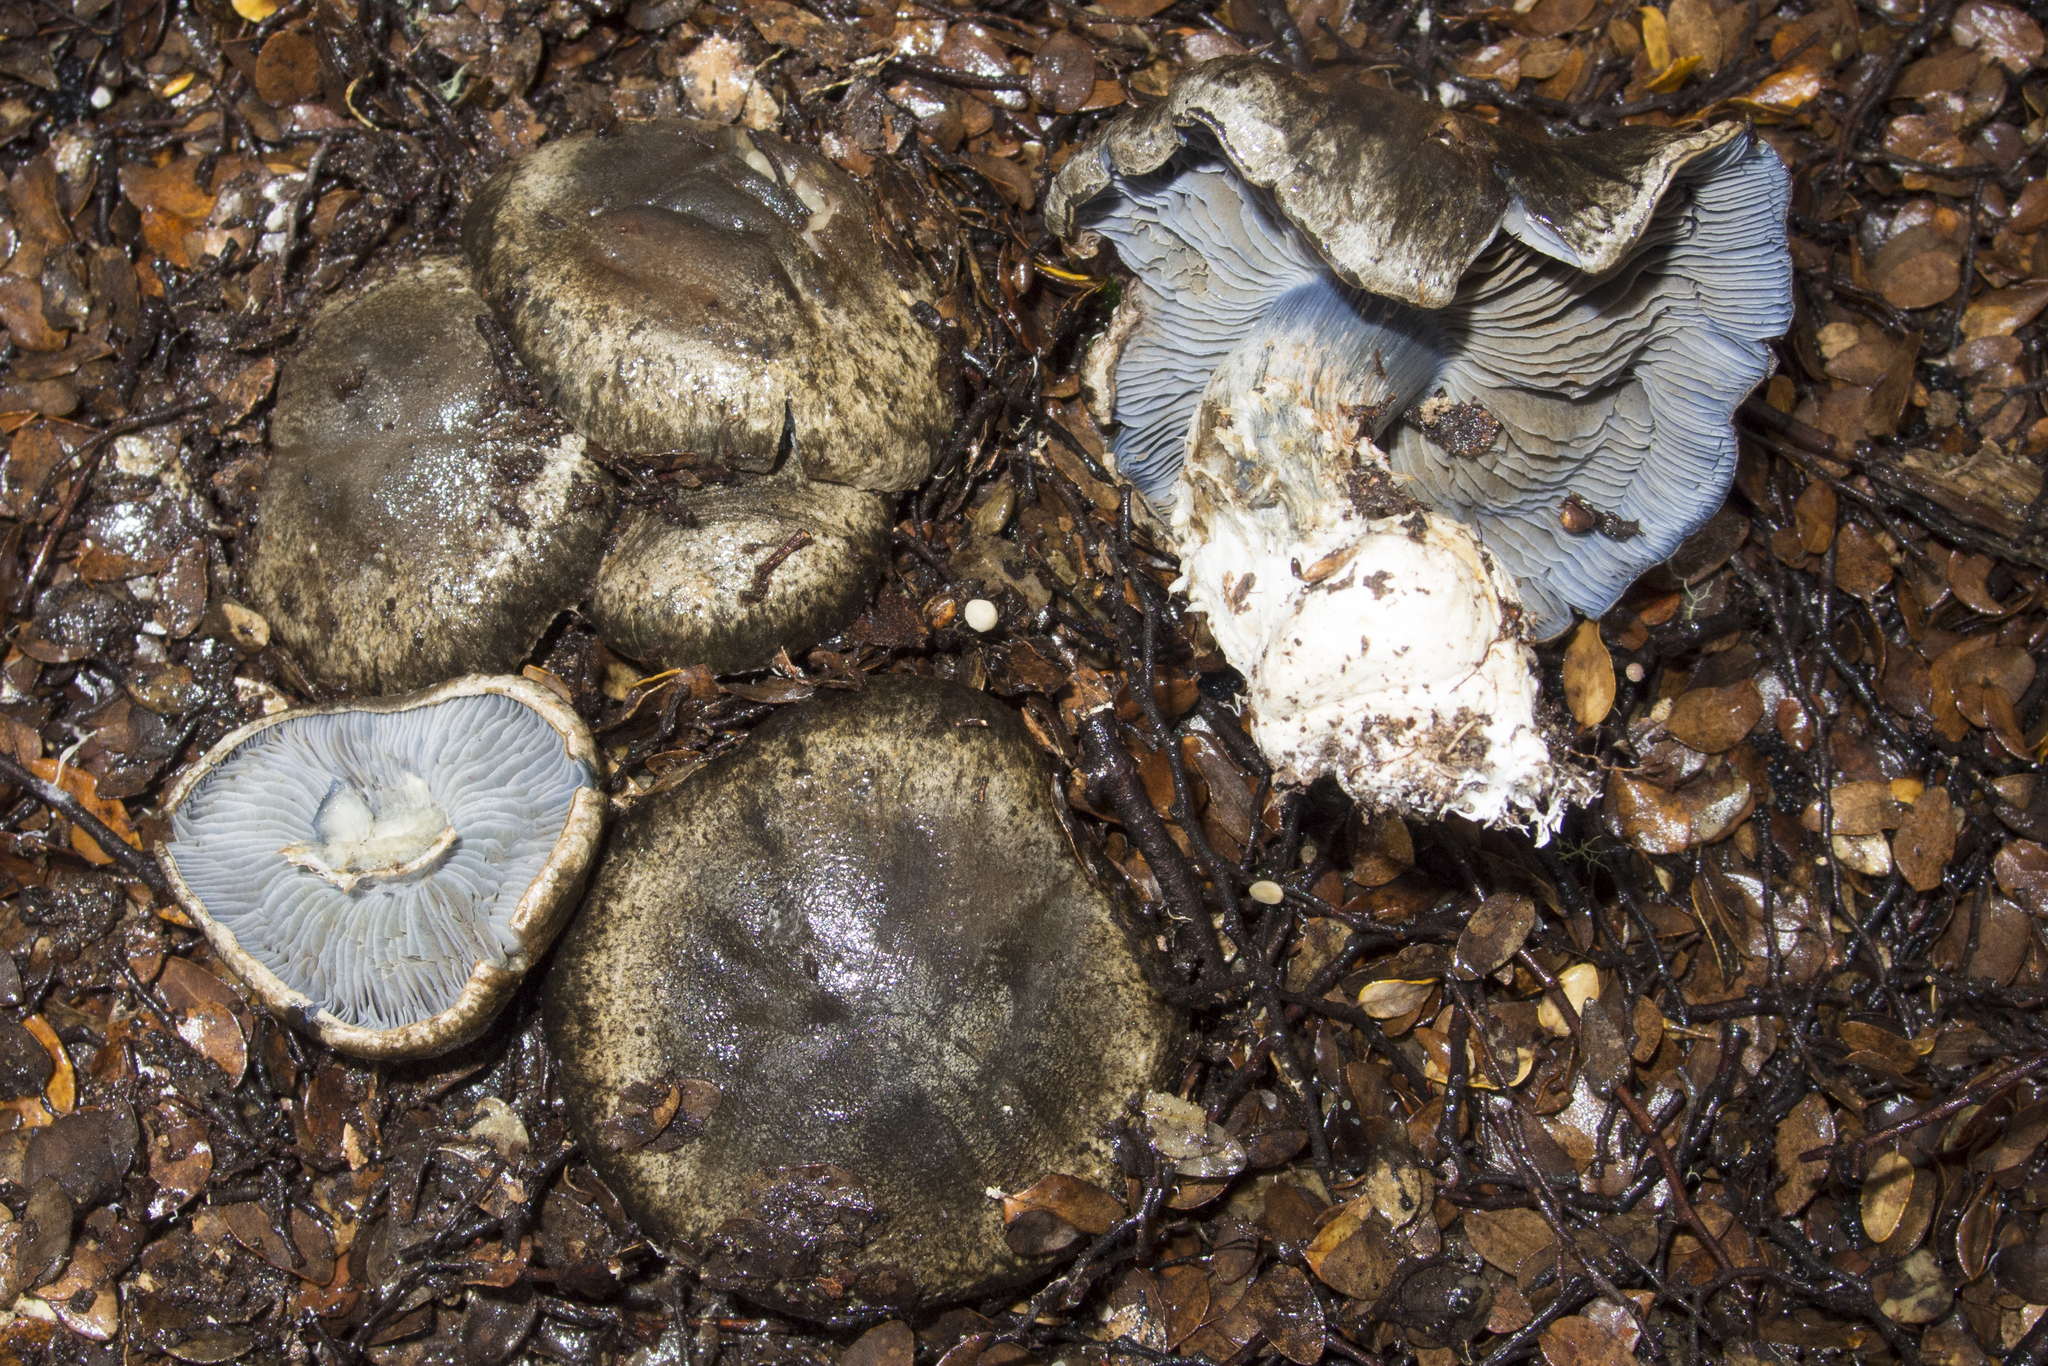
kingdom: Fungi
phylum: Basidiomycota
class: Agaricomycetes
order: Agaricales
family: Cortinariaceae
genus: Thaxterogaster
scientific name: Thaxterogaster austrocyanites
